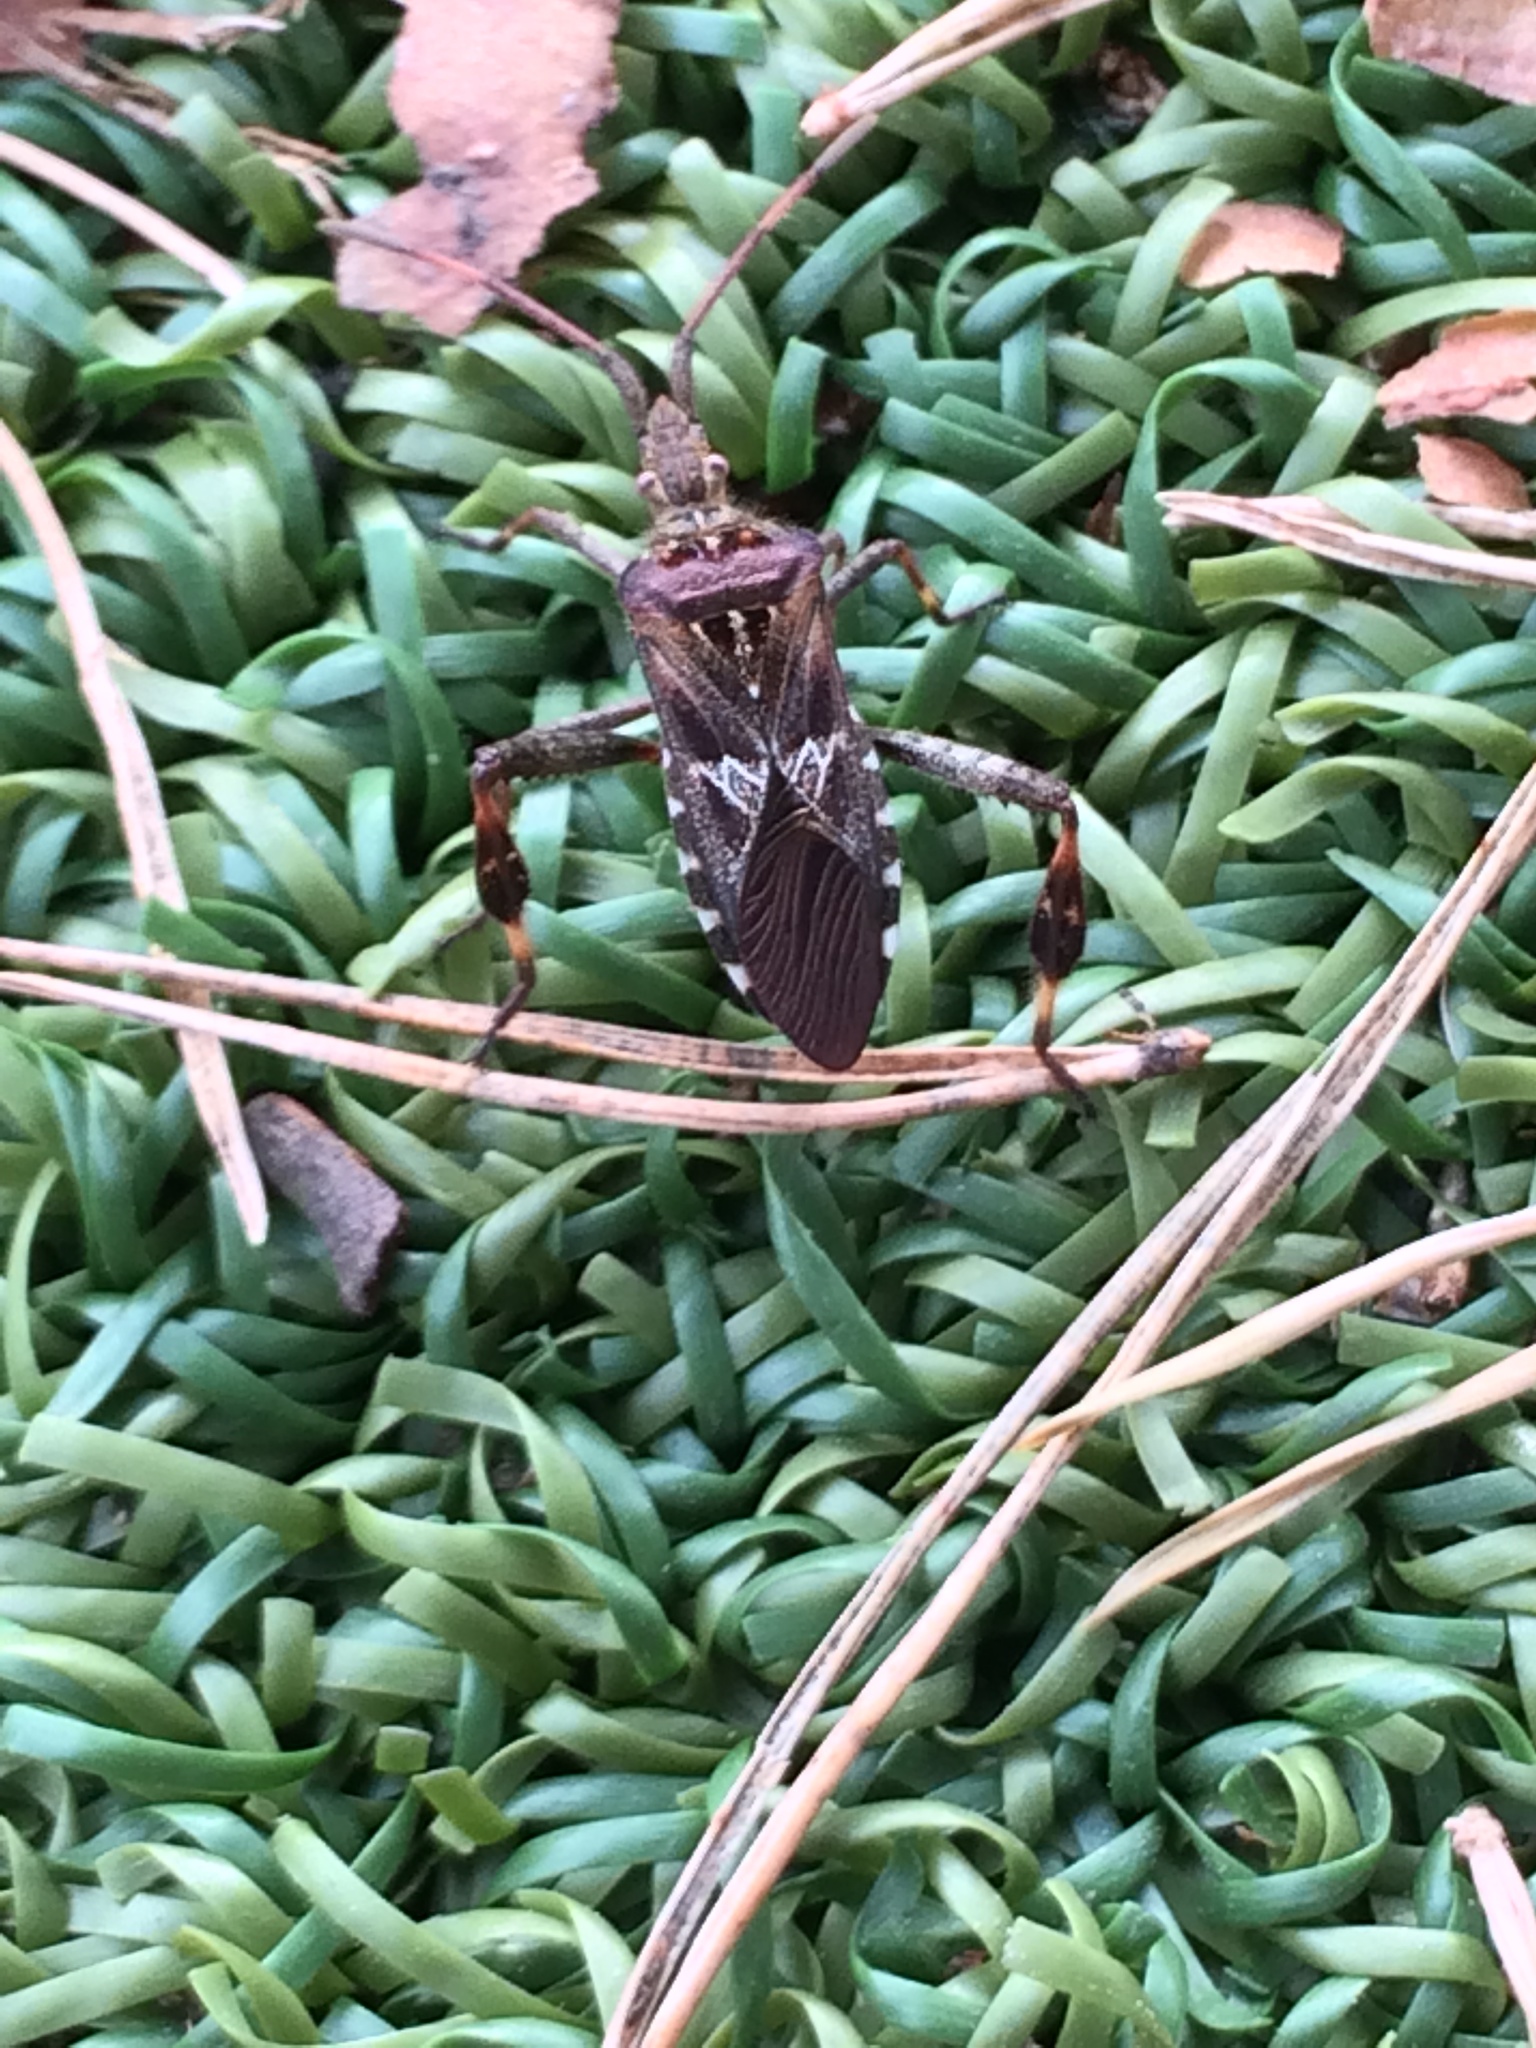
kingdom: Animalia
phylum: Arthropoda
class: Insecta
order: Hemiptera
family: Coreidae
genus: Leptoglossus
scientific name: Leptoglossus occidentalis
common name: Western conifer-seed bug
